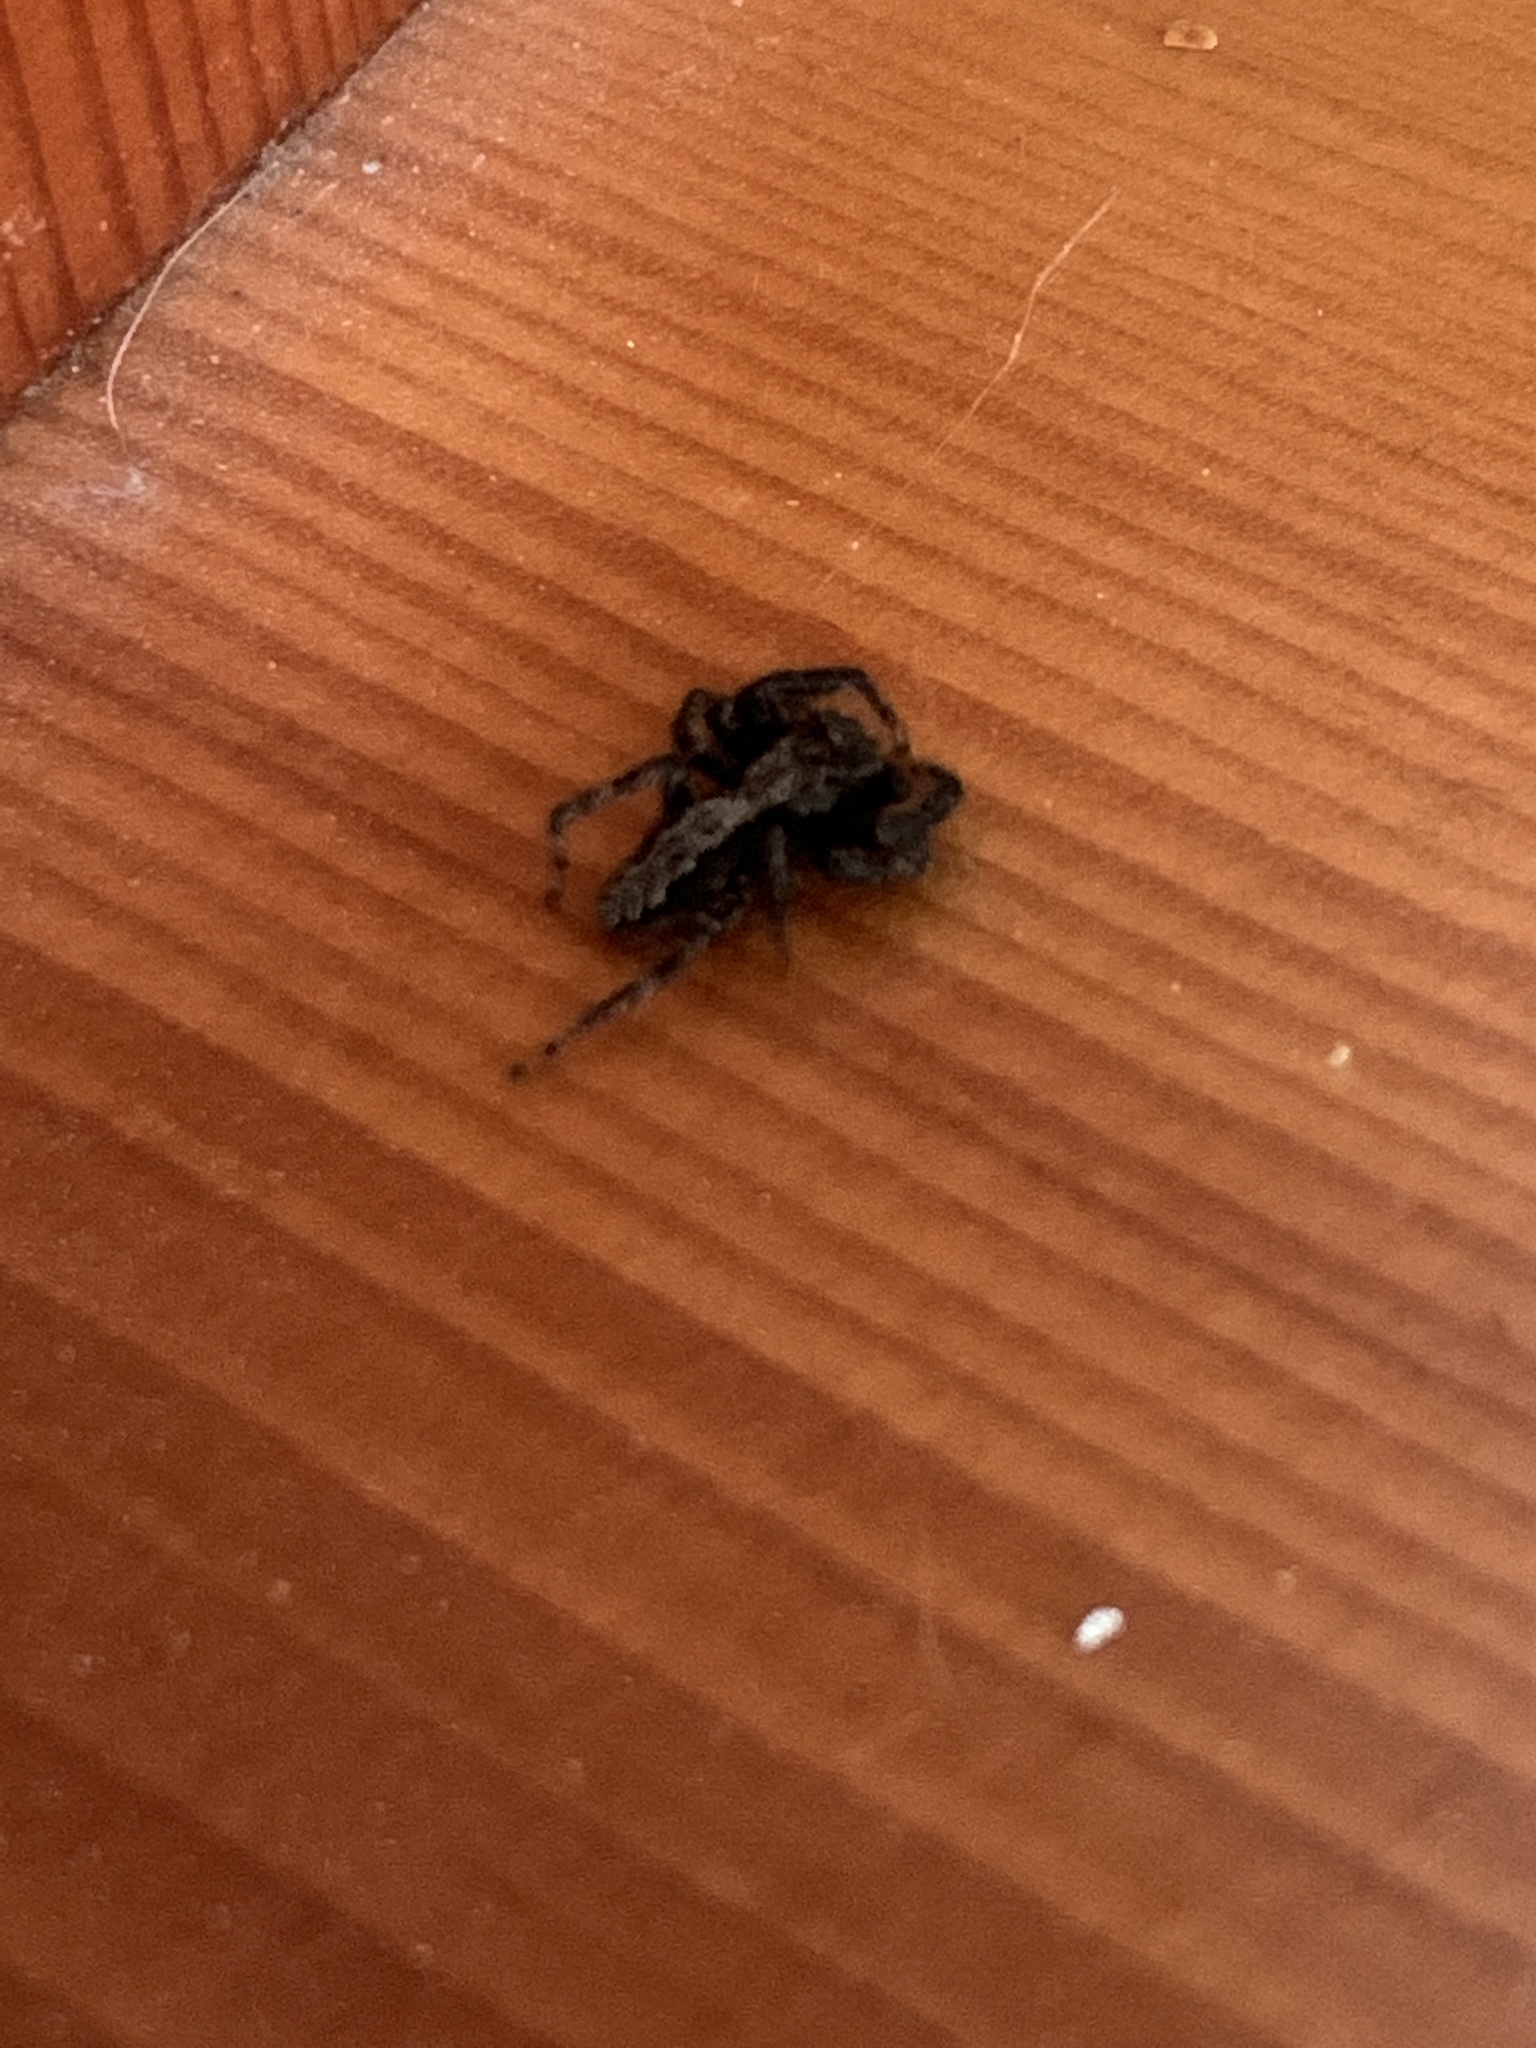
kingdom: Animalia
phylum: Arthropoda
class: Arachnida
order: Araneae
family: Salticidae
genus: Platycryptus
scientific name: Platycryptus californicus
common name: Jumping spiders
